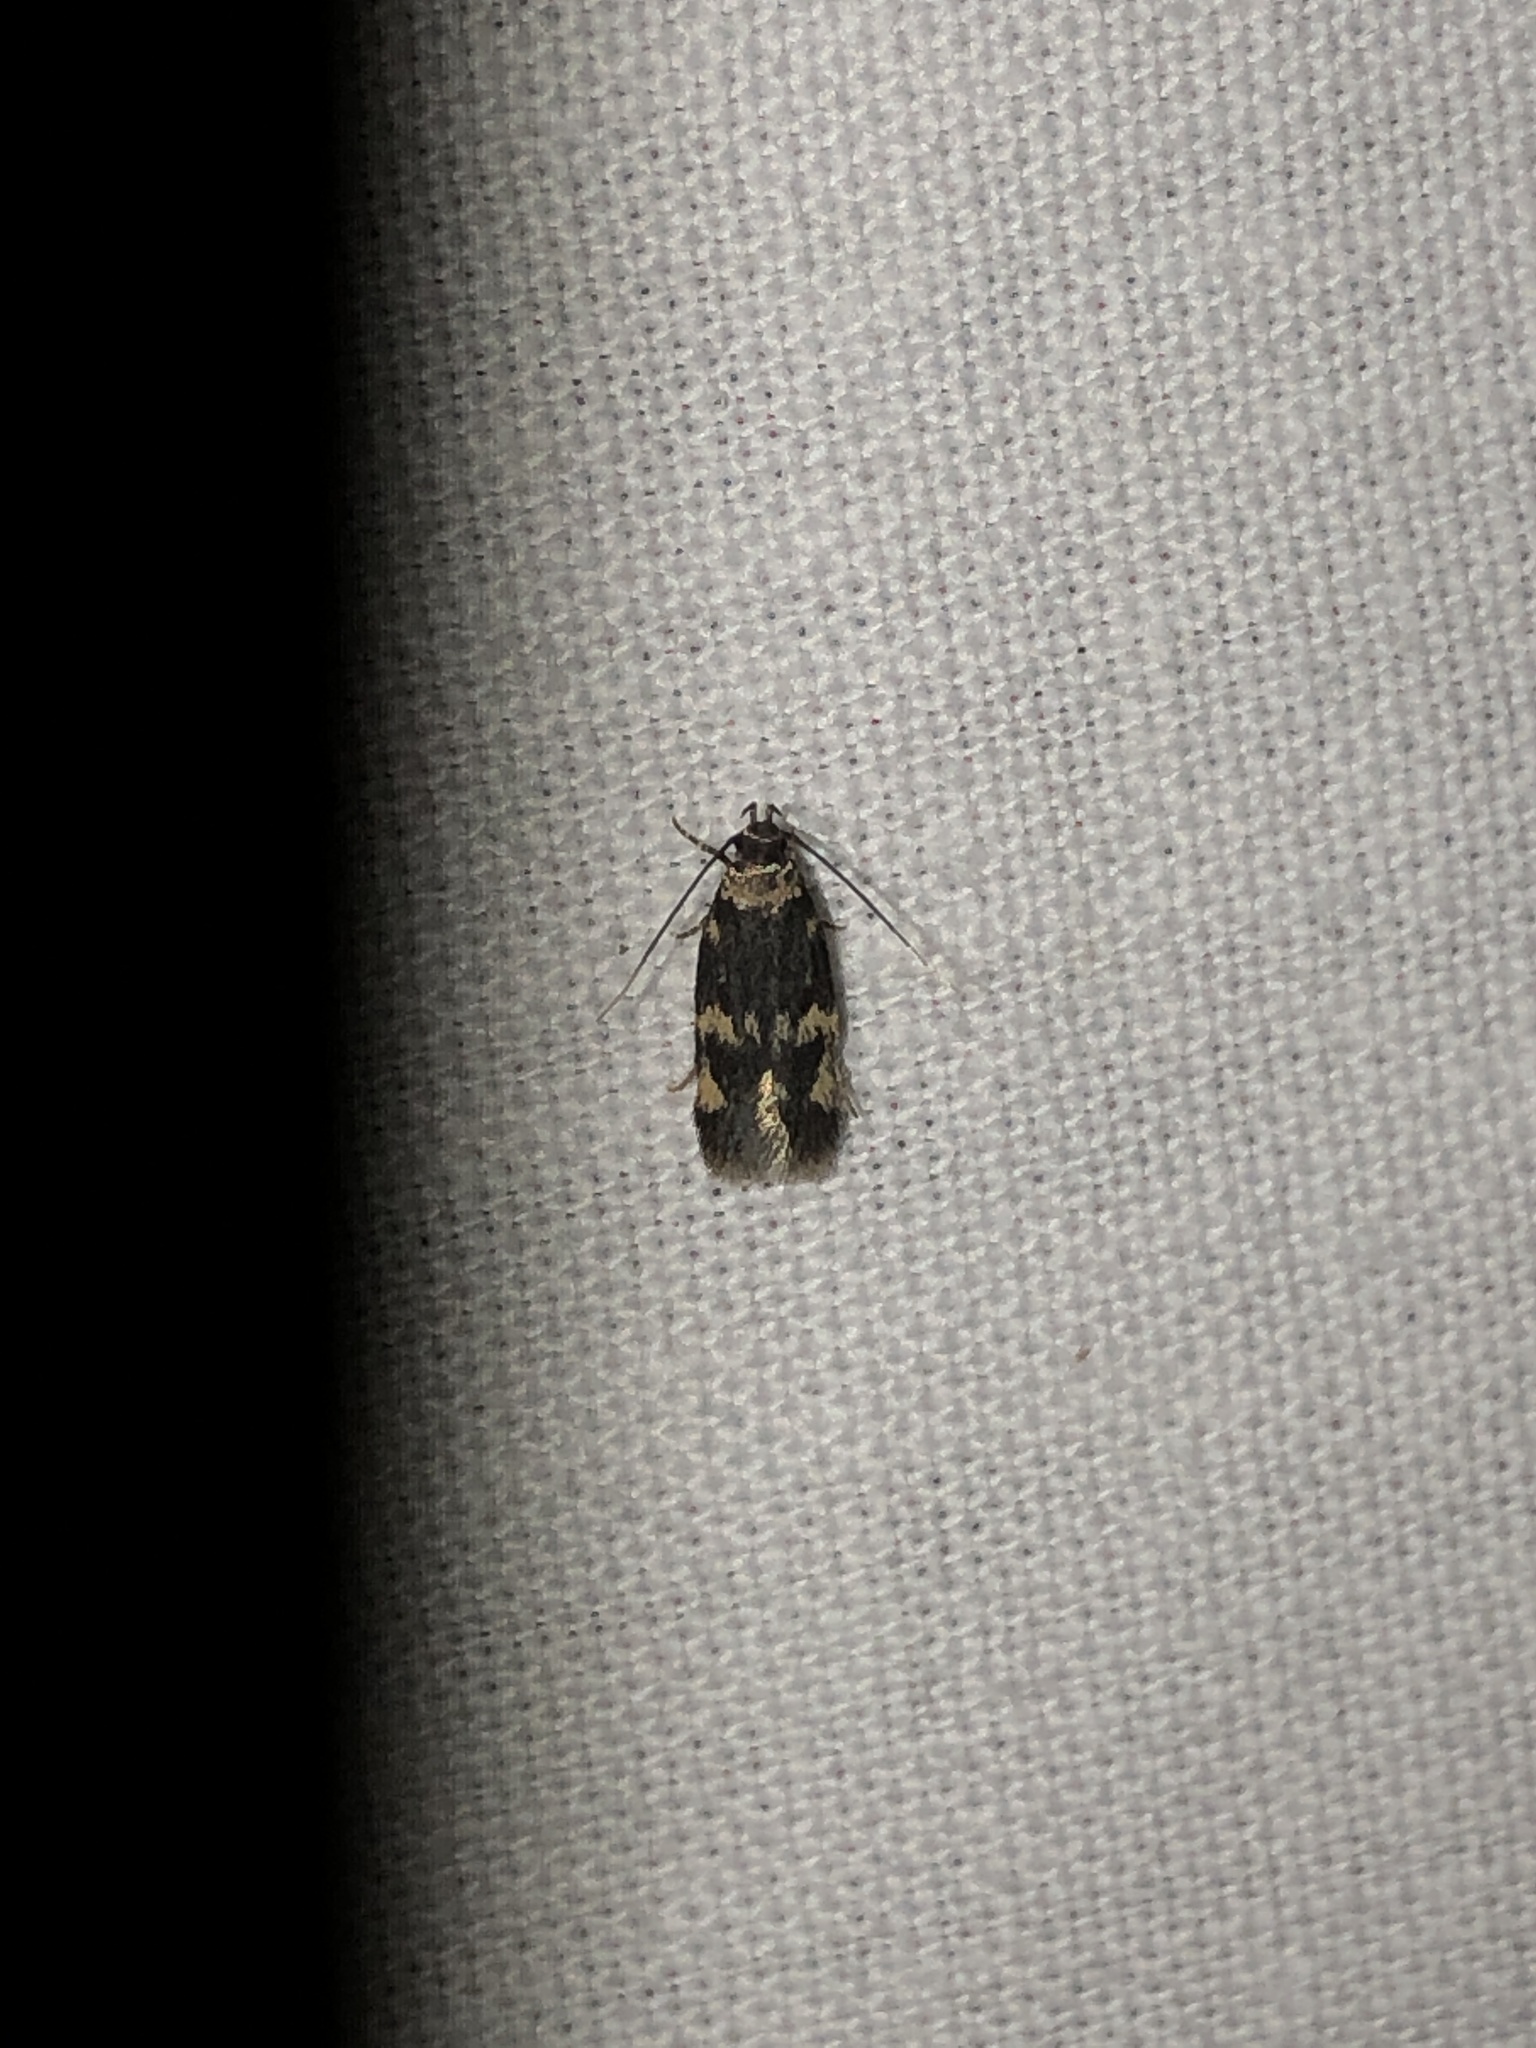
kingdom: Animalia
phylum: Arthropoda
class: Insecta
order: Lepidoptera
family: Autostichidae
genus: Oegoconia
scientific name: Oegoconia quadripuncta
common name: Four-spotted obscure
